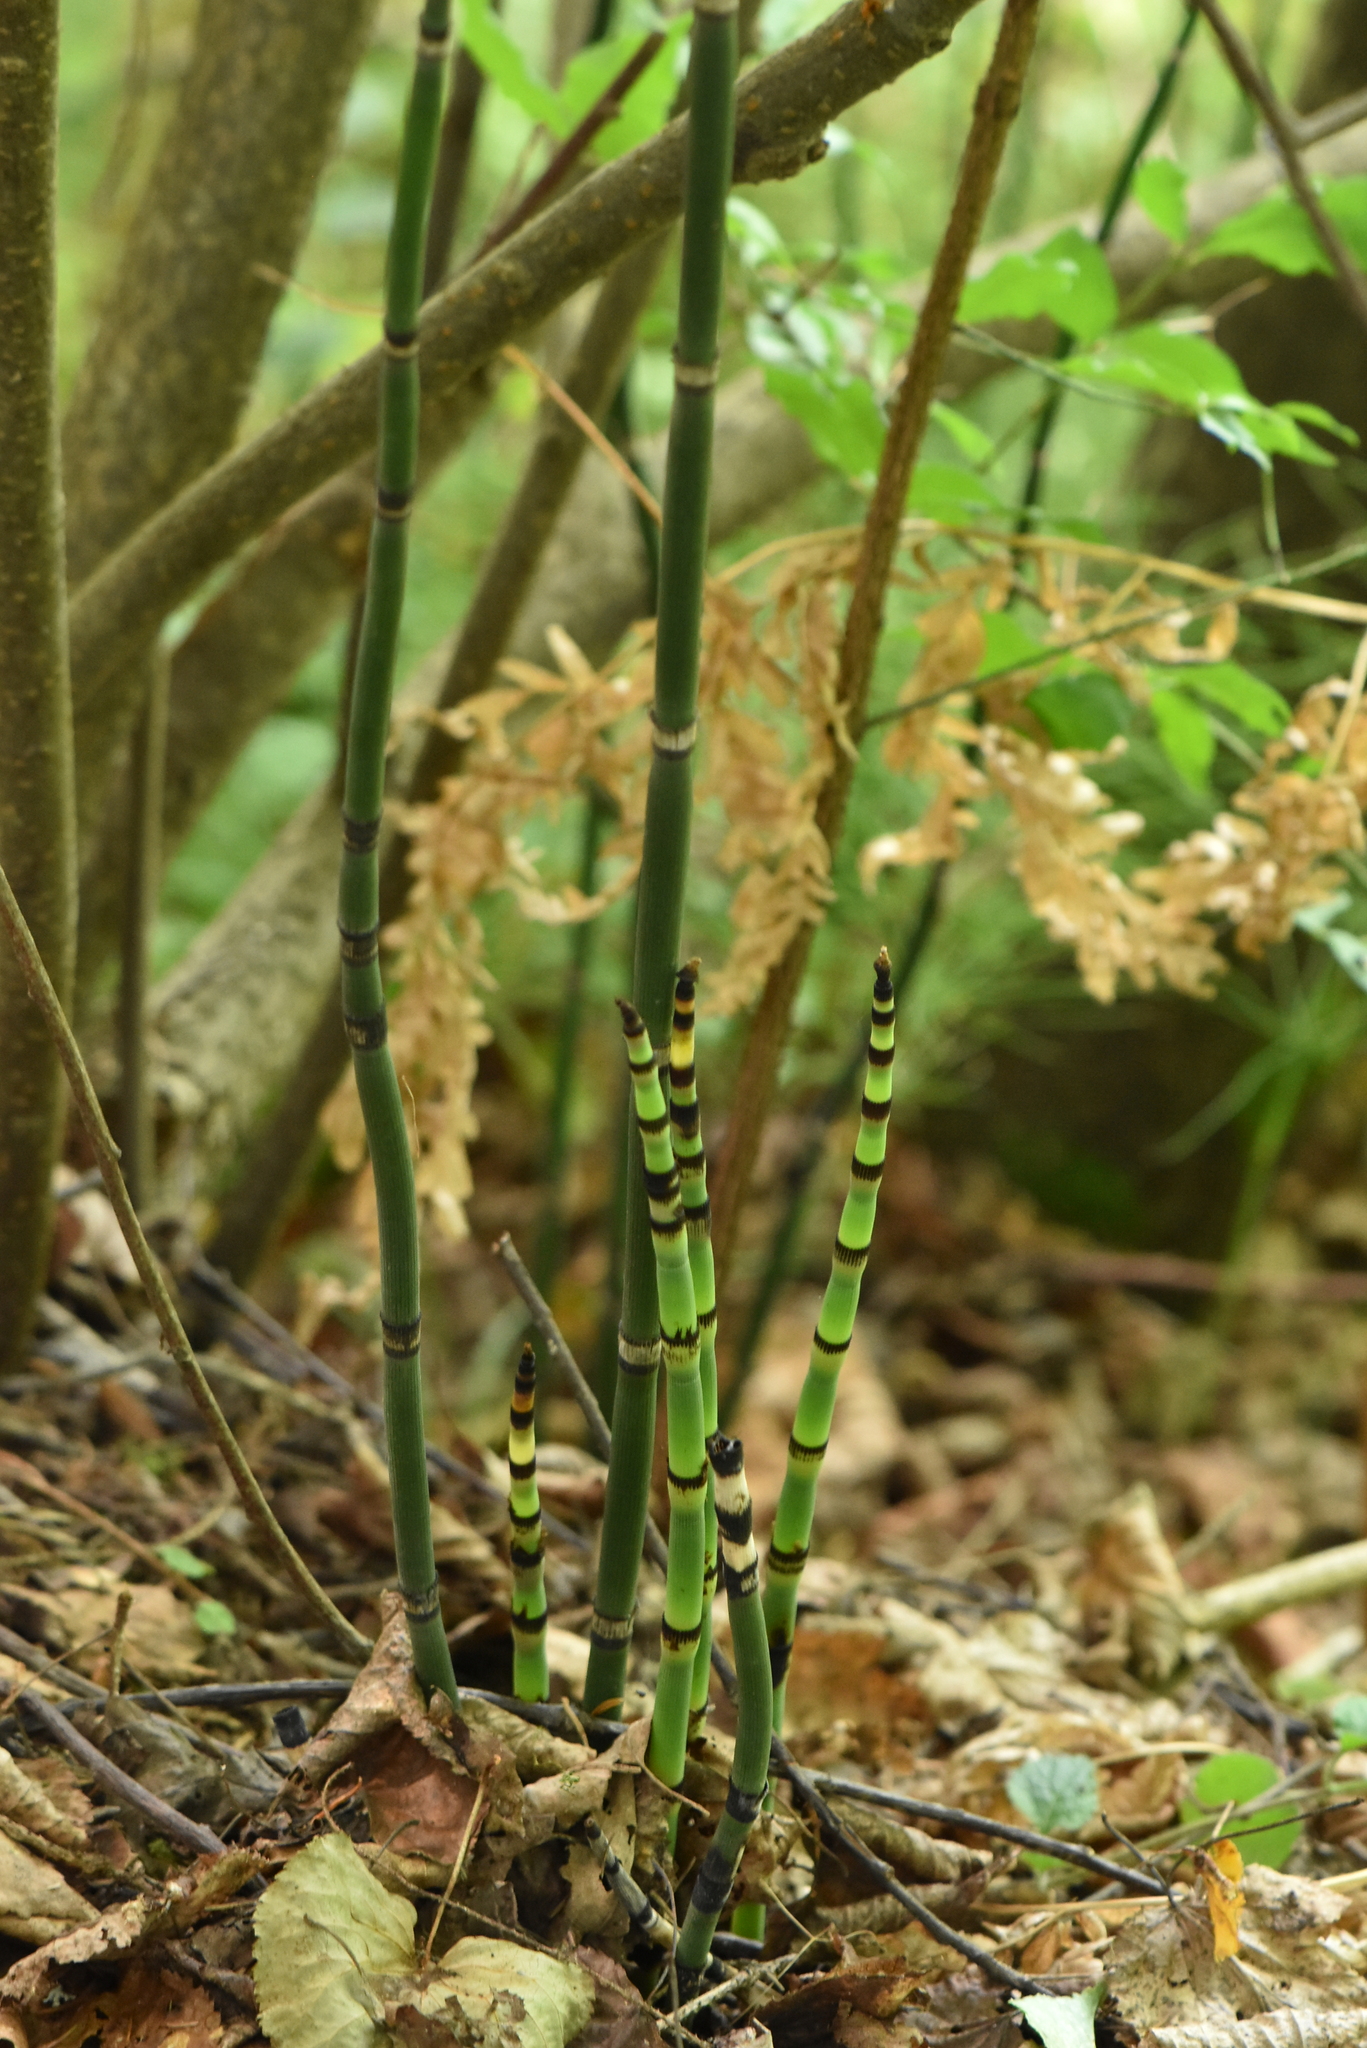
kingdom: Plantae
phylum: Tracheophyta
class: Polypodiopsida
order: Equisetales
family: Equisetaceae
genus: Equisetum
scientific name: Equisetum hyemale
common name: Rough horsetail
